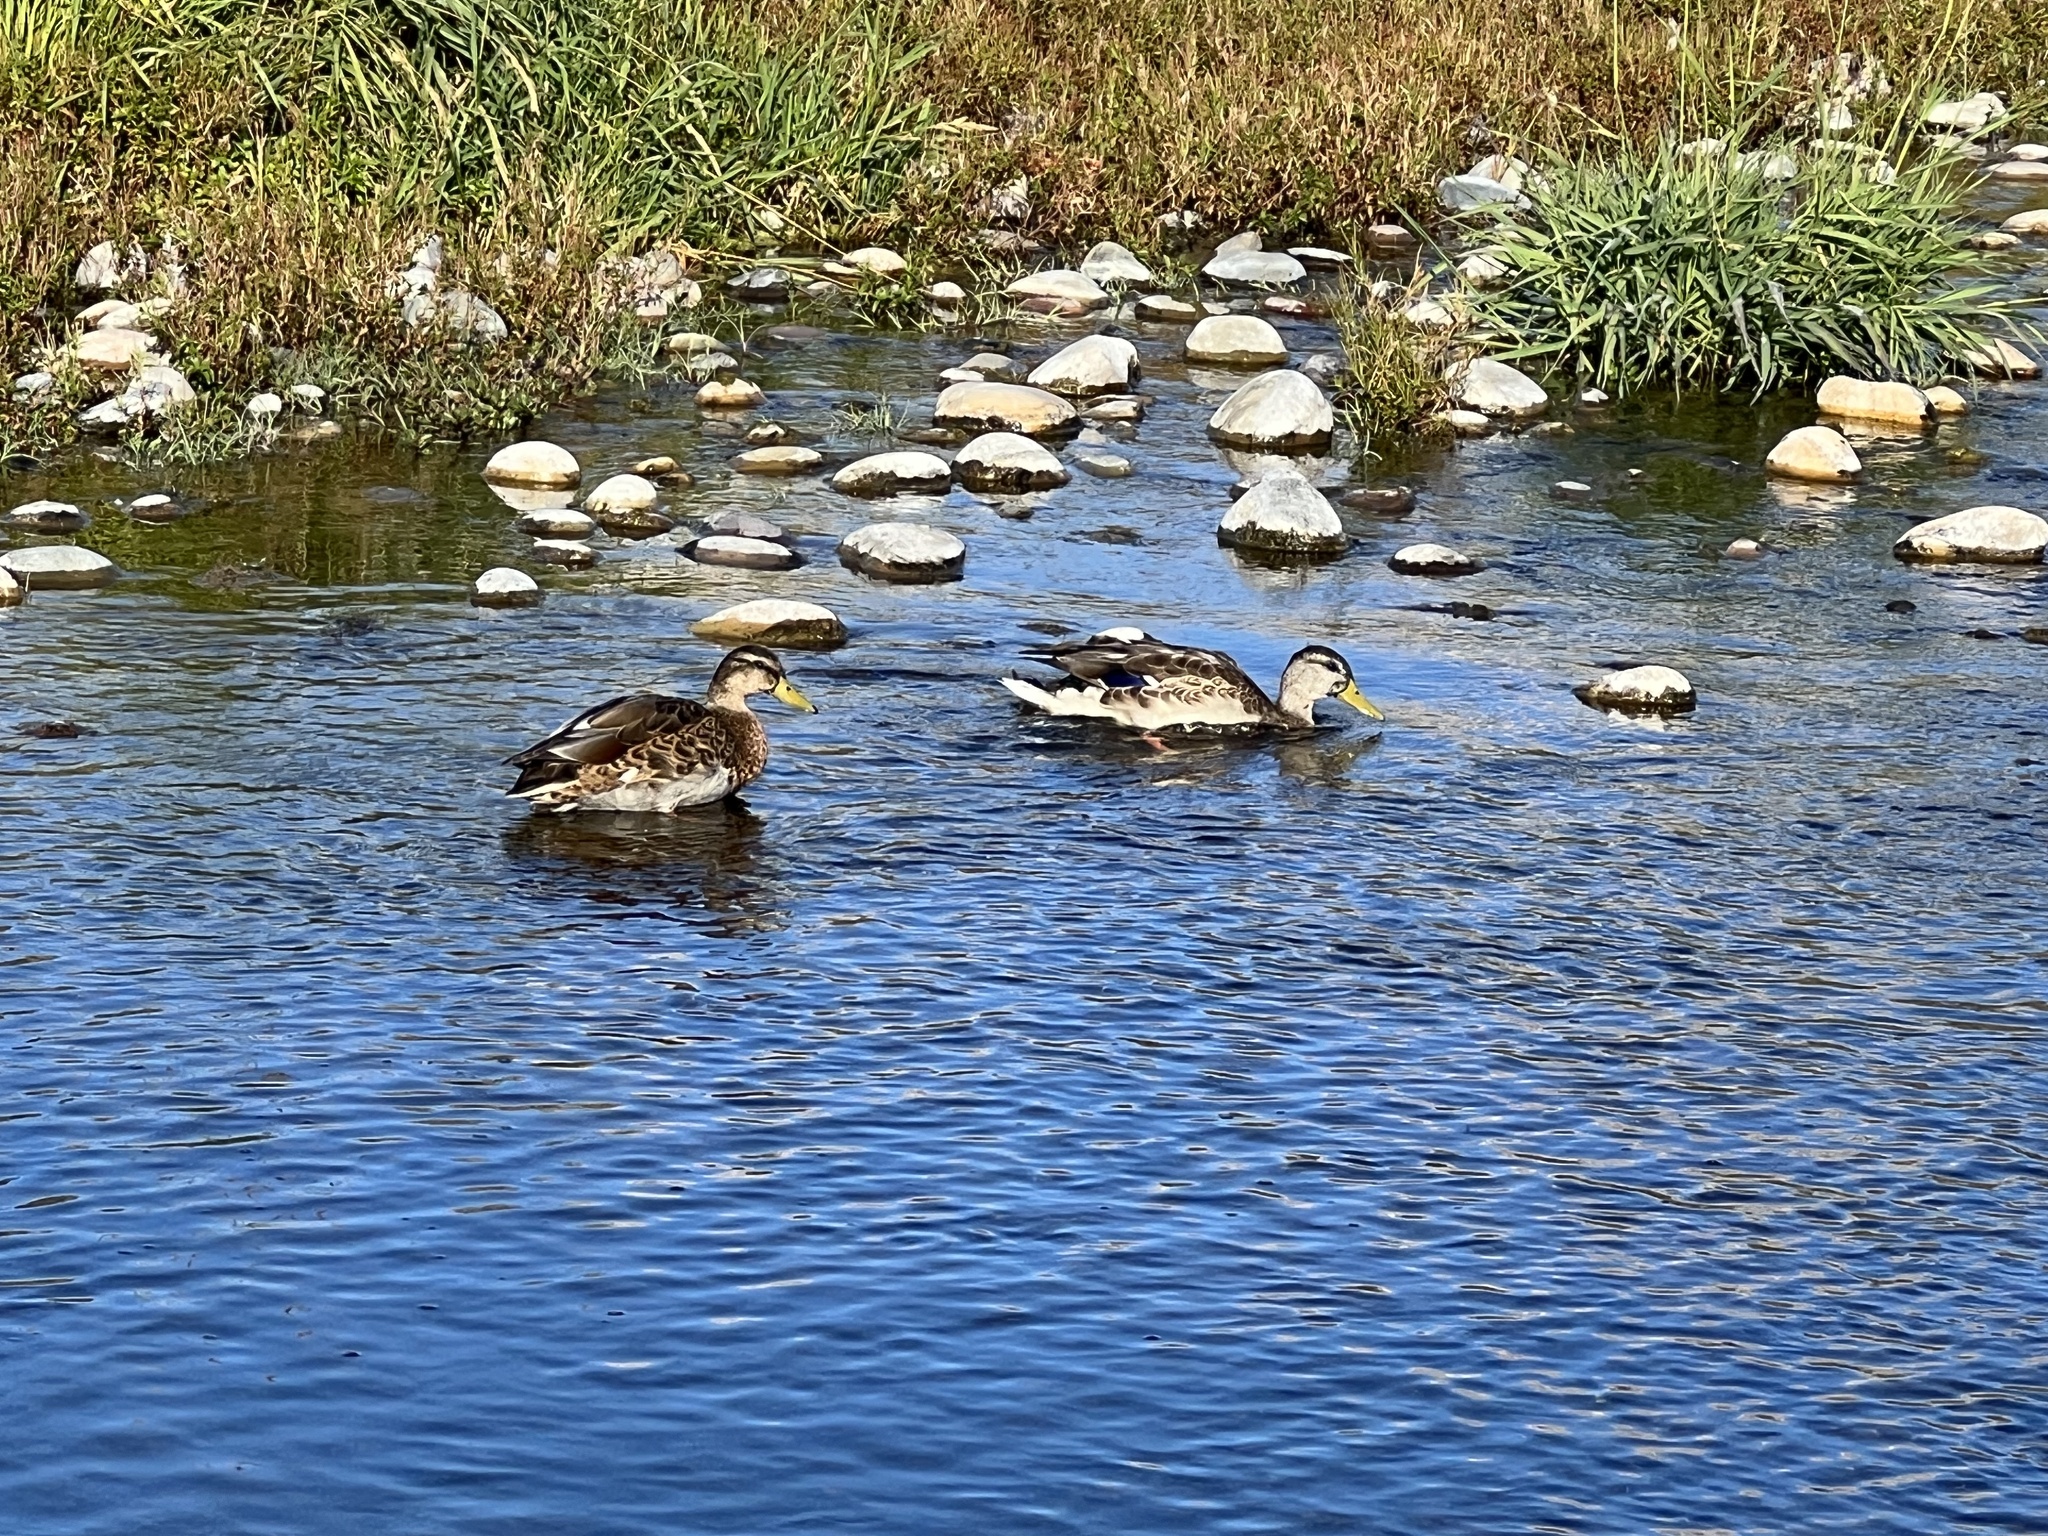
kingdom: Animalia
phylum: Chordata
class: Aves
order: Anseriformes
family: Anatidae
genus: Anas
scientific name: Anas platyrhynchos
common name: Mallard
